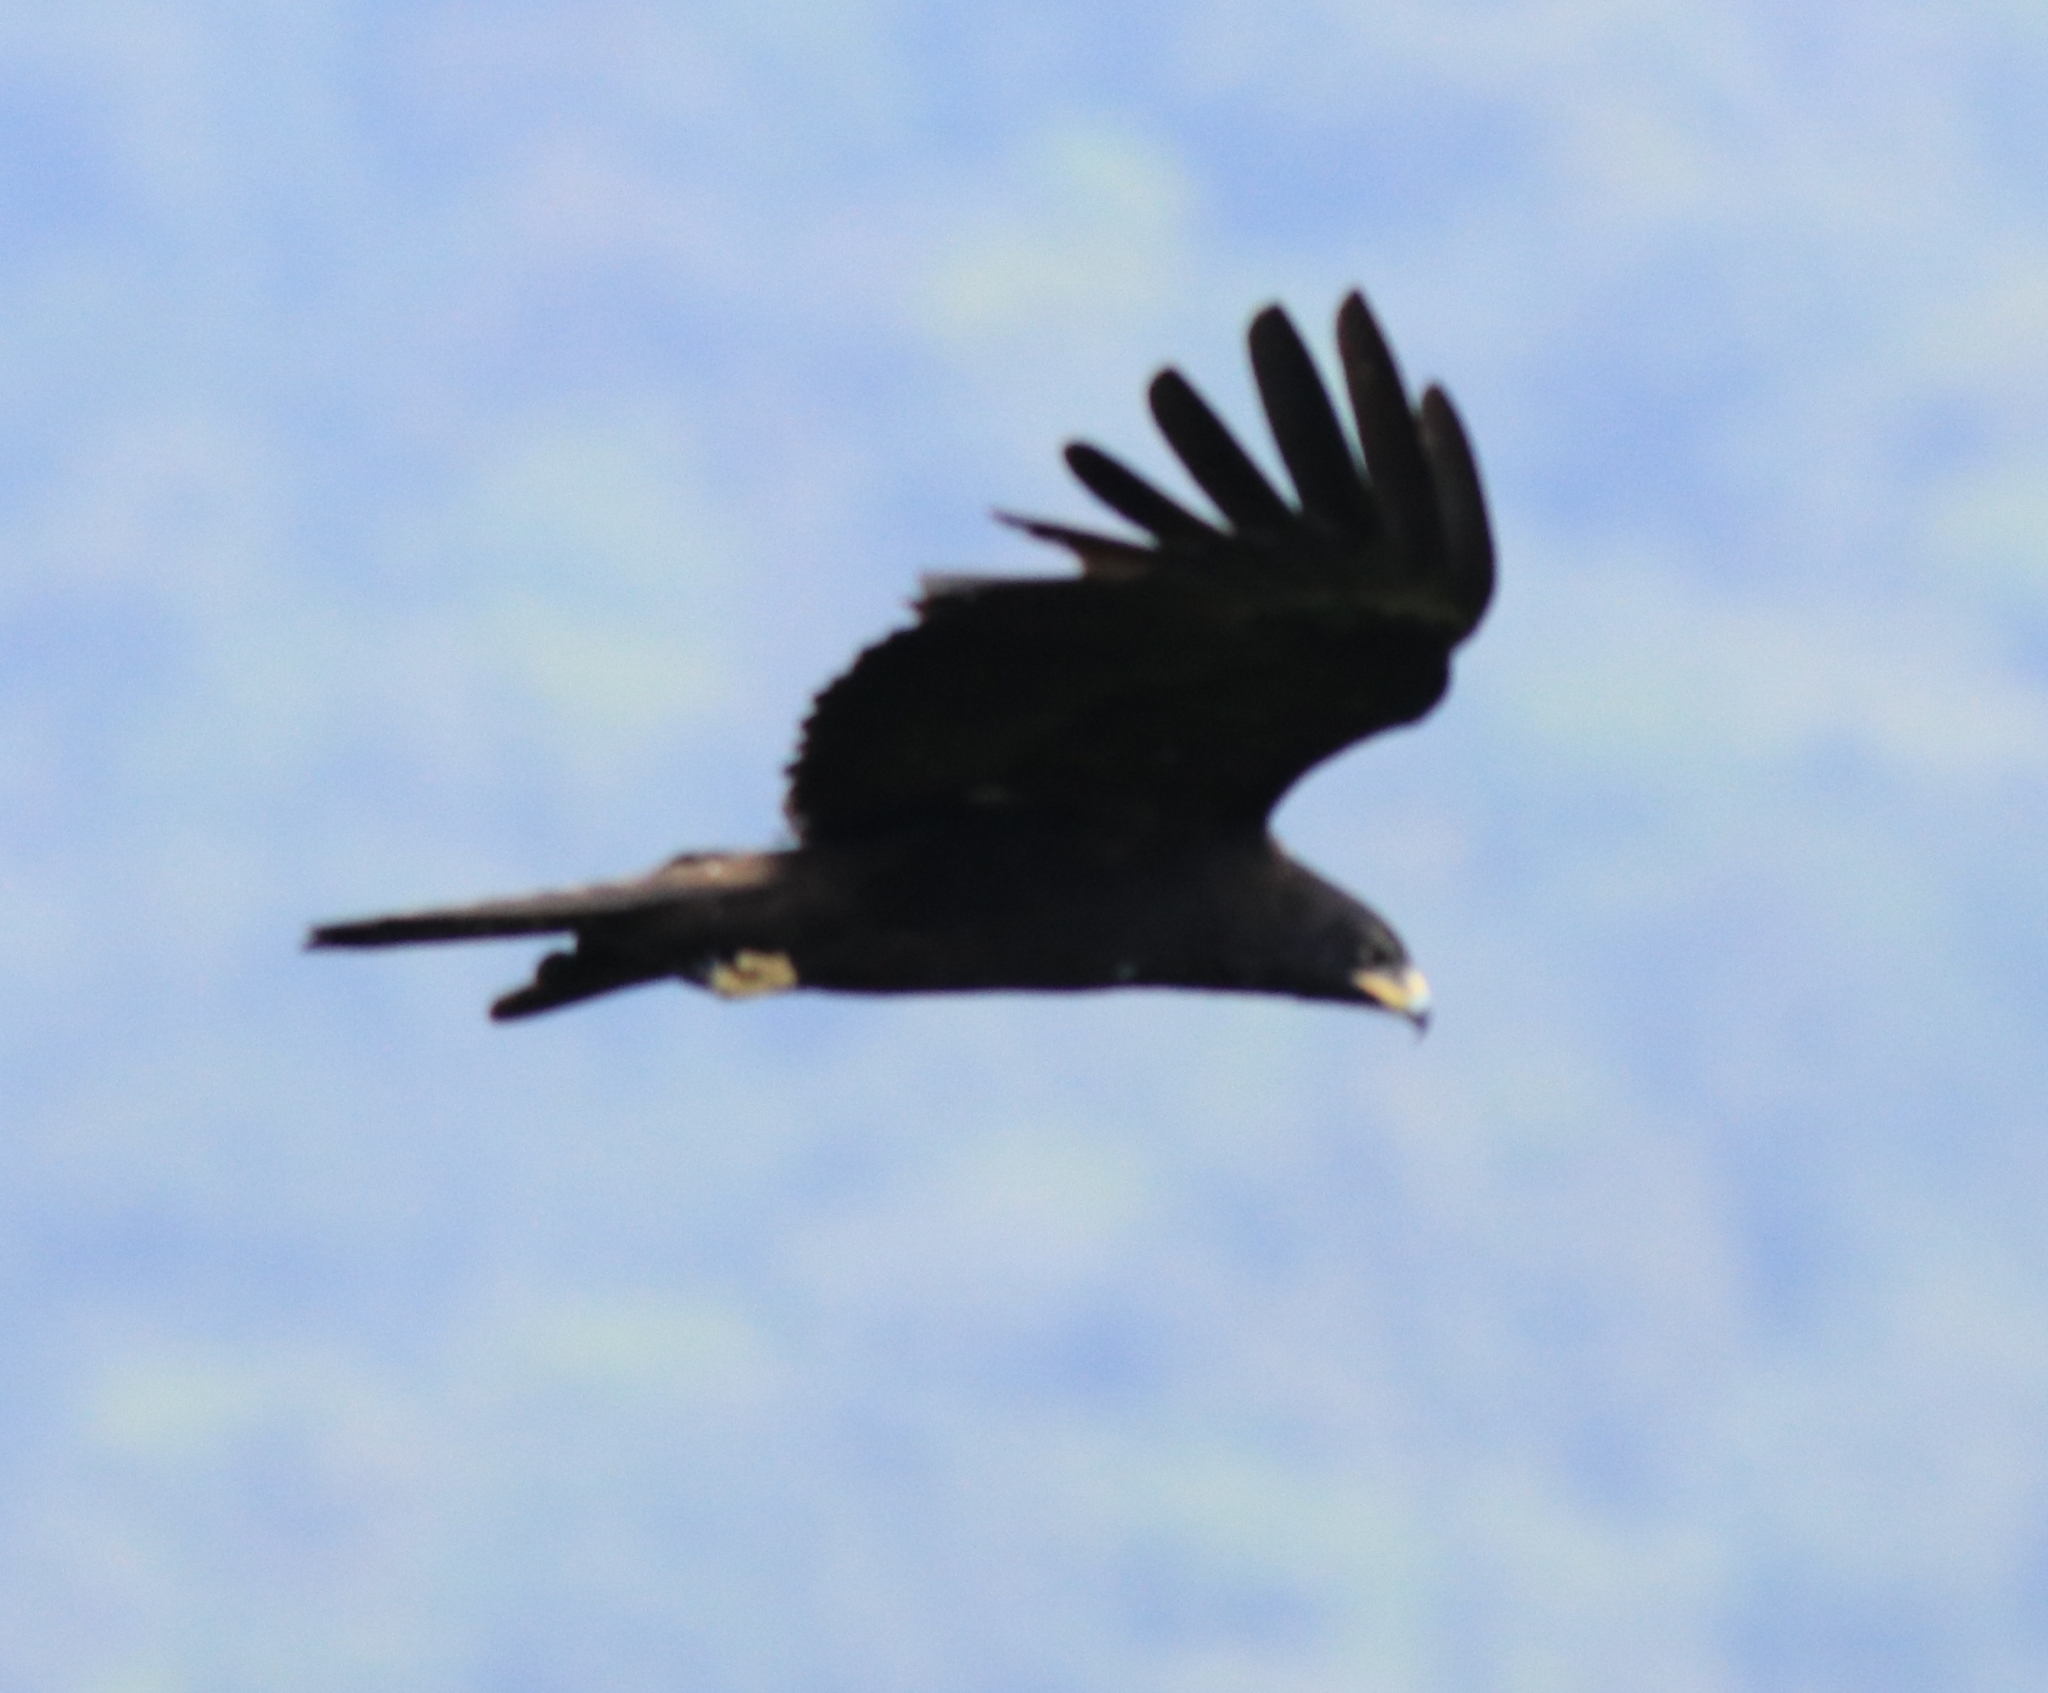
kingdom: Animalia
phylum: Chordata
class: Aves
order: Accipitriformes
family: Accipitridae
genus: Ictinaetus
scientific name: Ictinaetus malayensis
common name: Black eagle
